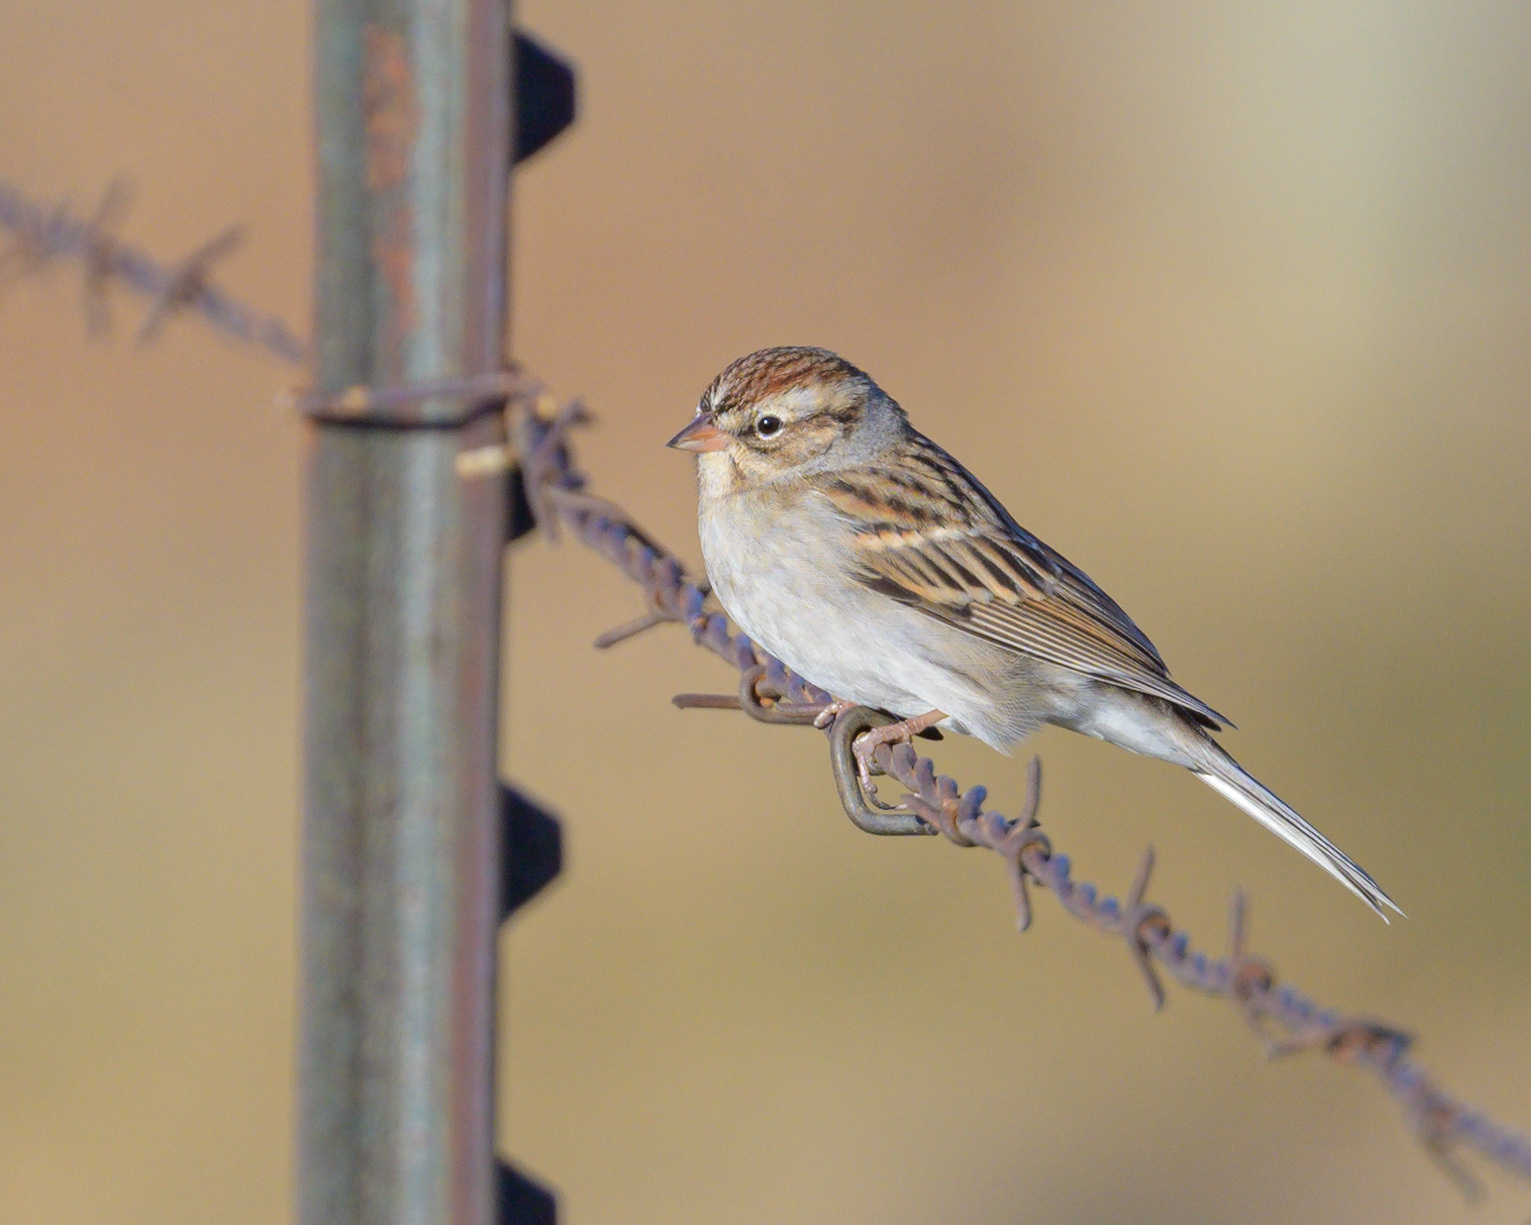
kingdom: Animalia
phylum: Chordata
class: Aves
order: Passeriformes
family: Passerellidae
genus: Spizella
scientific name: Spizella passerina
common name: Chipping sparrow
